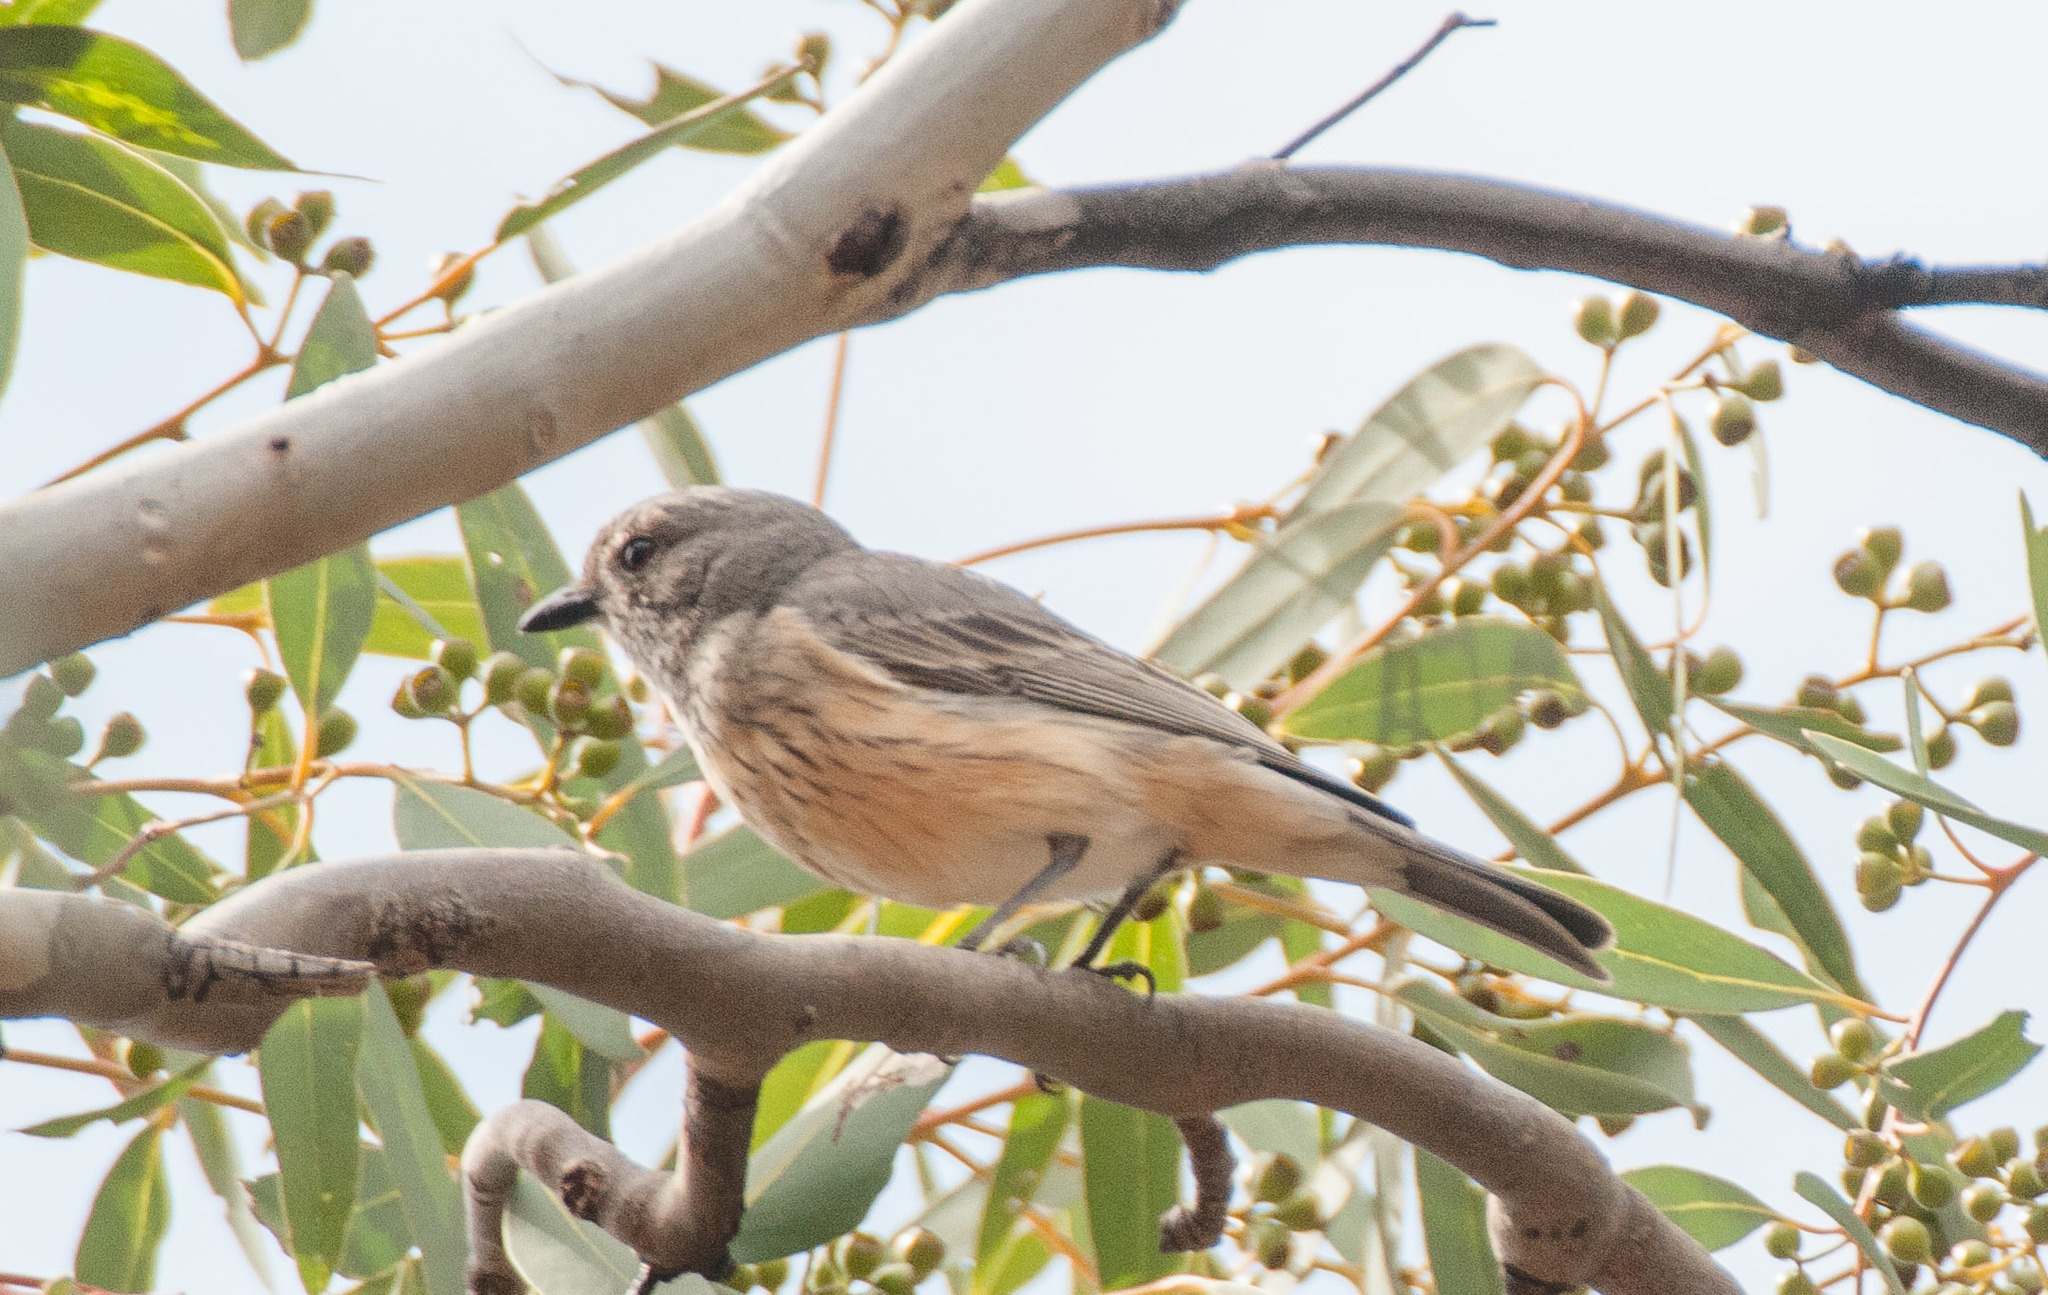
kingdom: Animalia
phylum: Chordata
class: Aves
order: Passeriformes
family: Pachycephalidae
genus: Pachycephala
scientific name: Pachycephala rufiventris
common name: Rufous whistler
